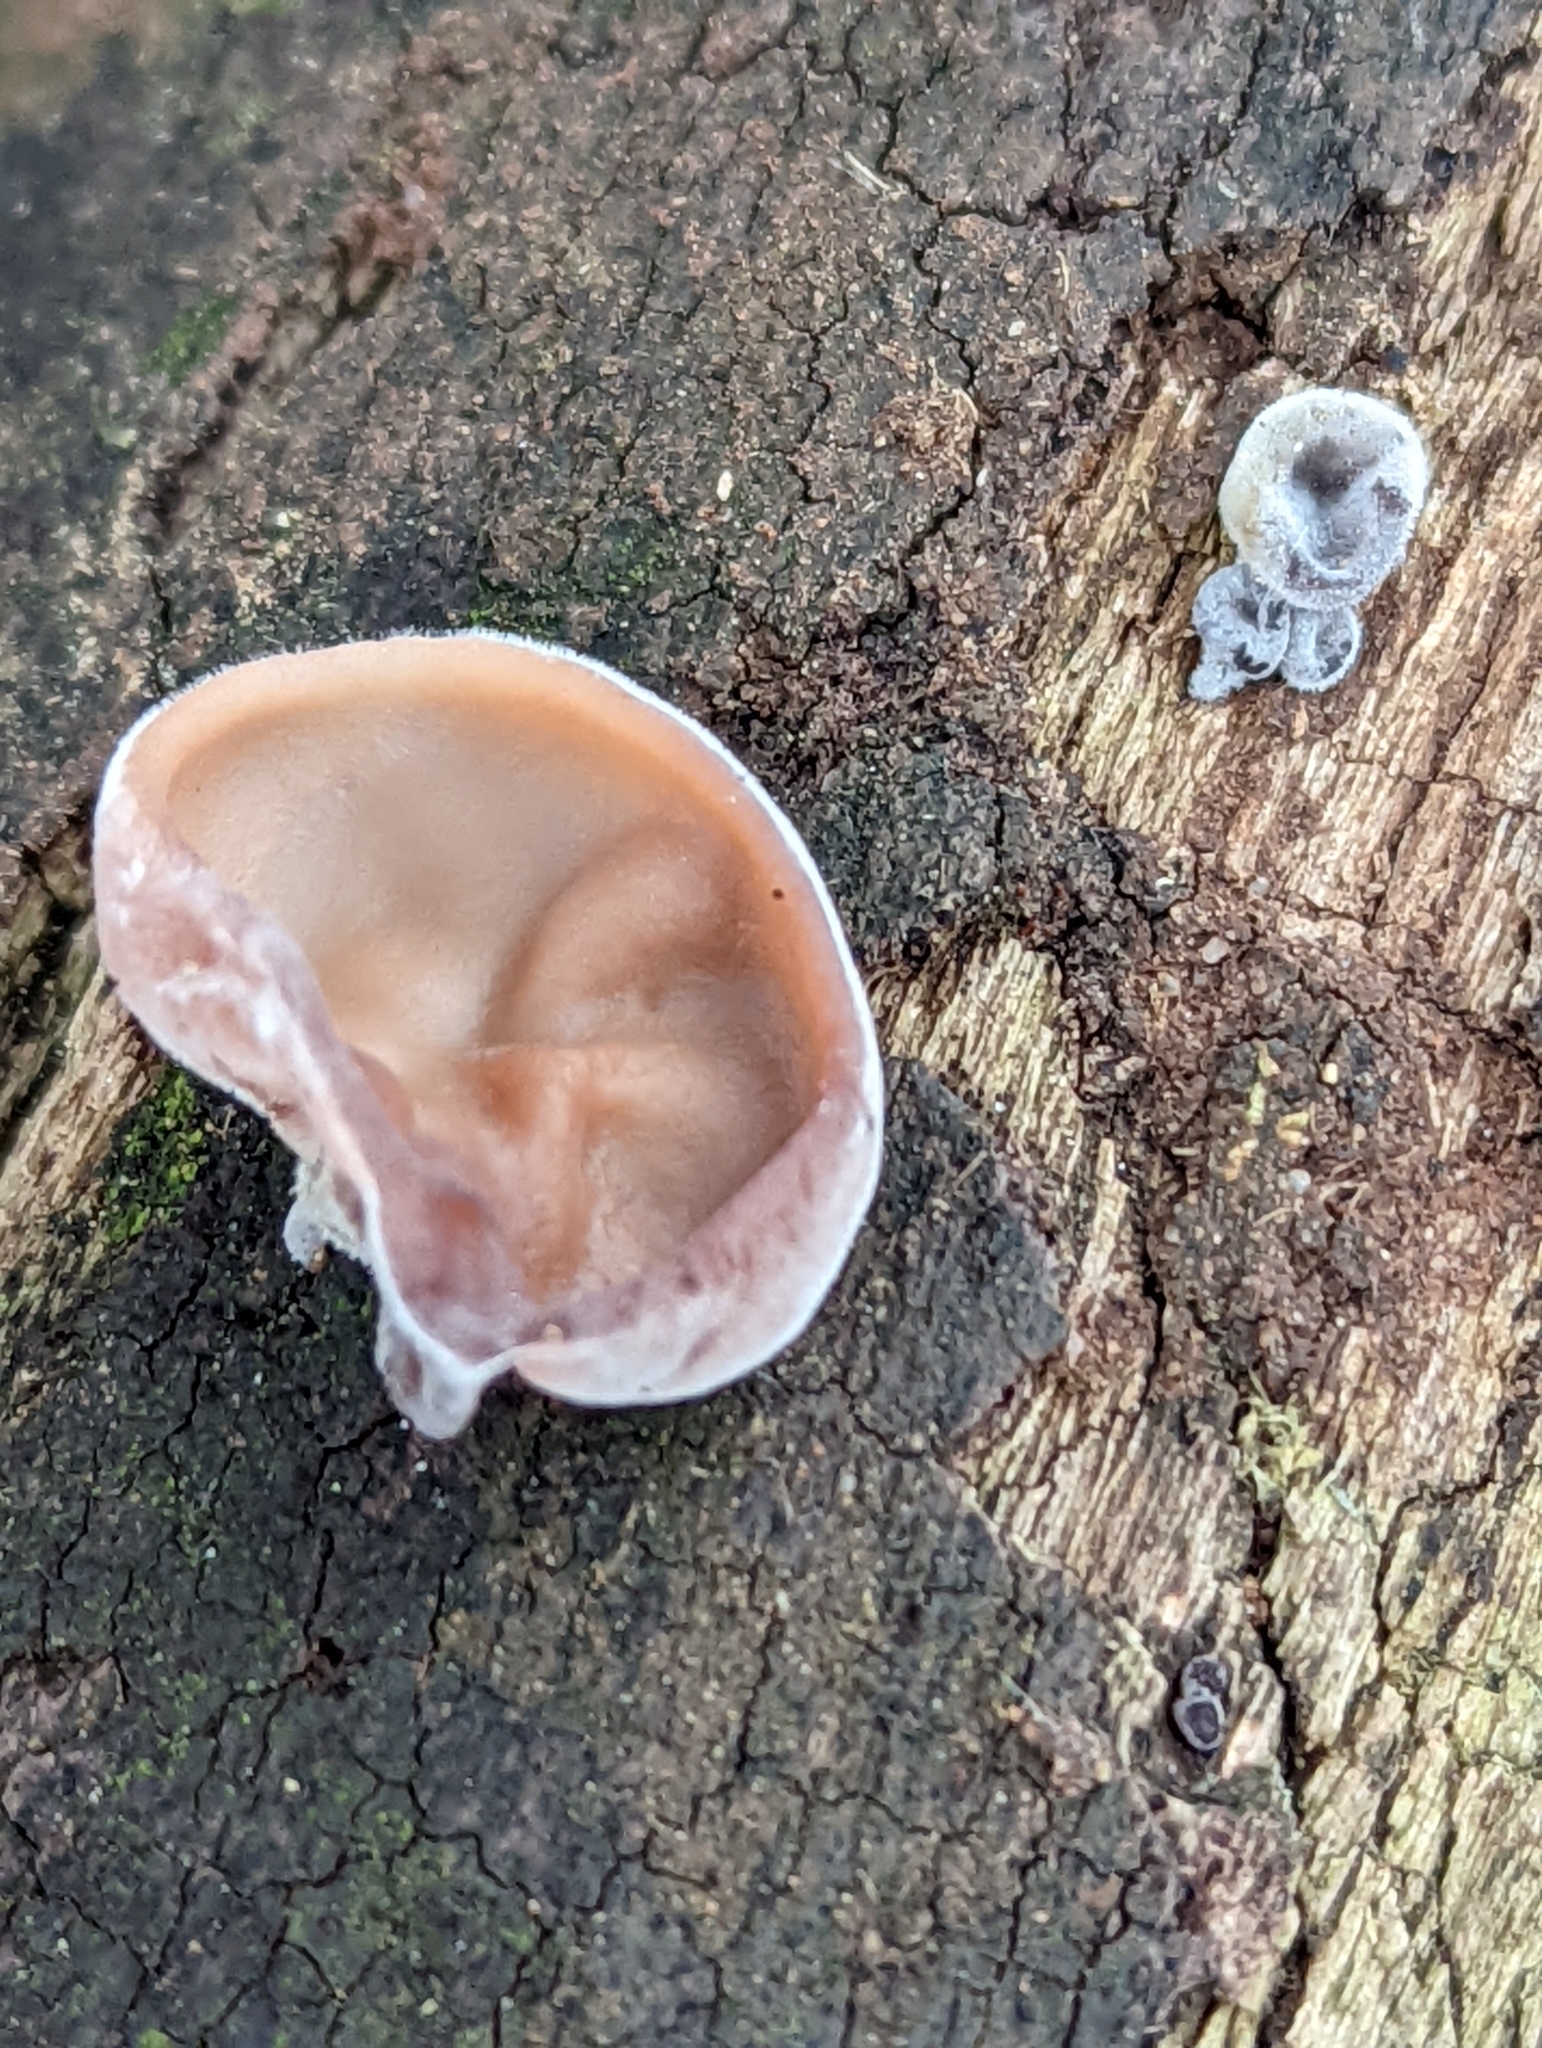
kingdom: Fungi
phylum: Basidiomycota
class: Agaricomycetes
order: Auriculariales
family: Auriculariaceae
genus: Auricularia
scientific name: Auricularia auricula-judae
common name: Jelly ear
